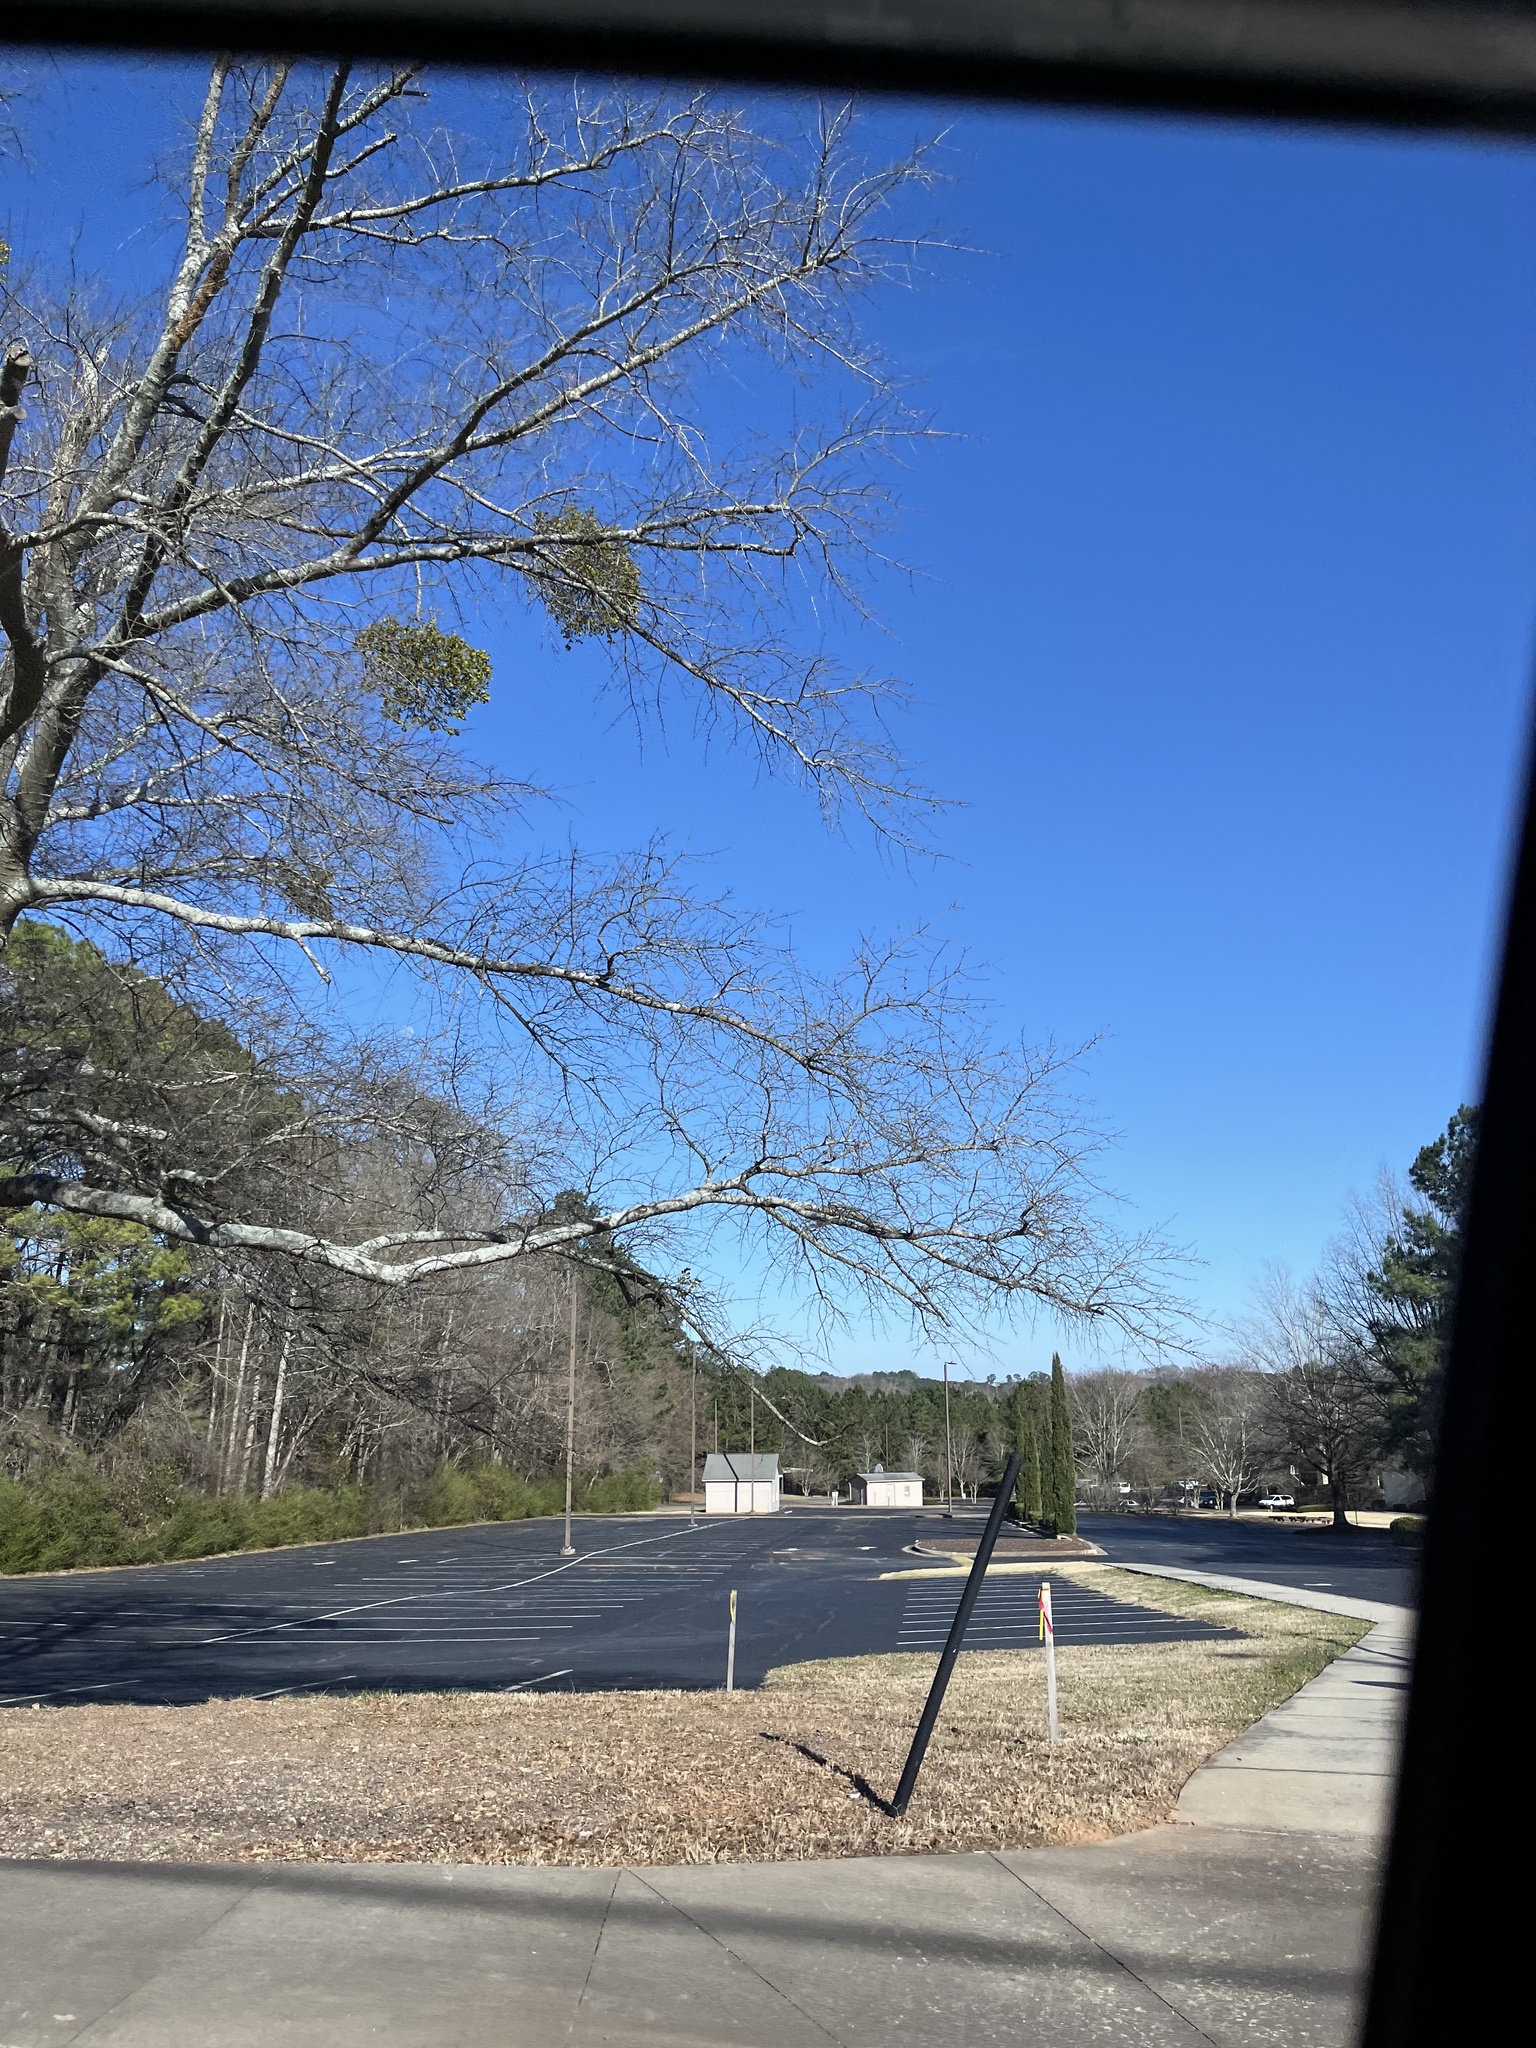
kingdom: Plantae
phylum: Tracheophyta
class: Magnoliopsida
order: Santalales
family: Viscaceae
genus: Phoradendron
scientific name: Phoradendron leucarpum
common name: Pacific mistletoe
